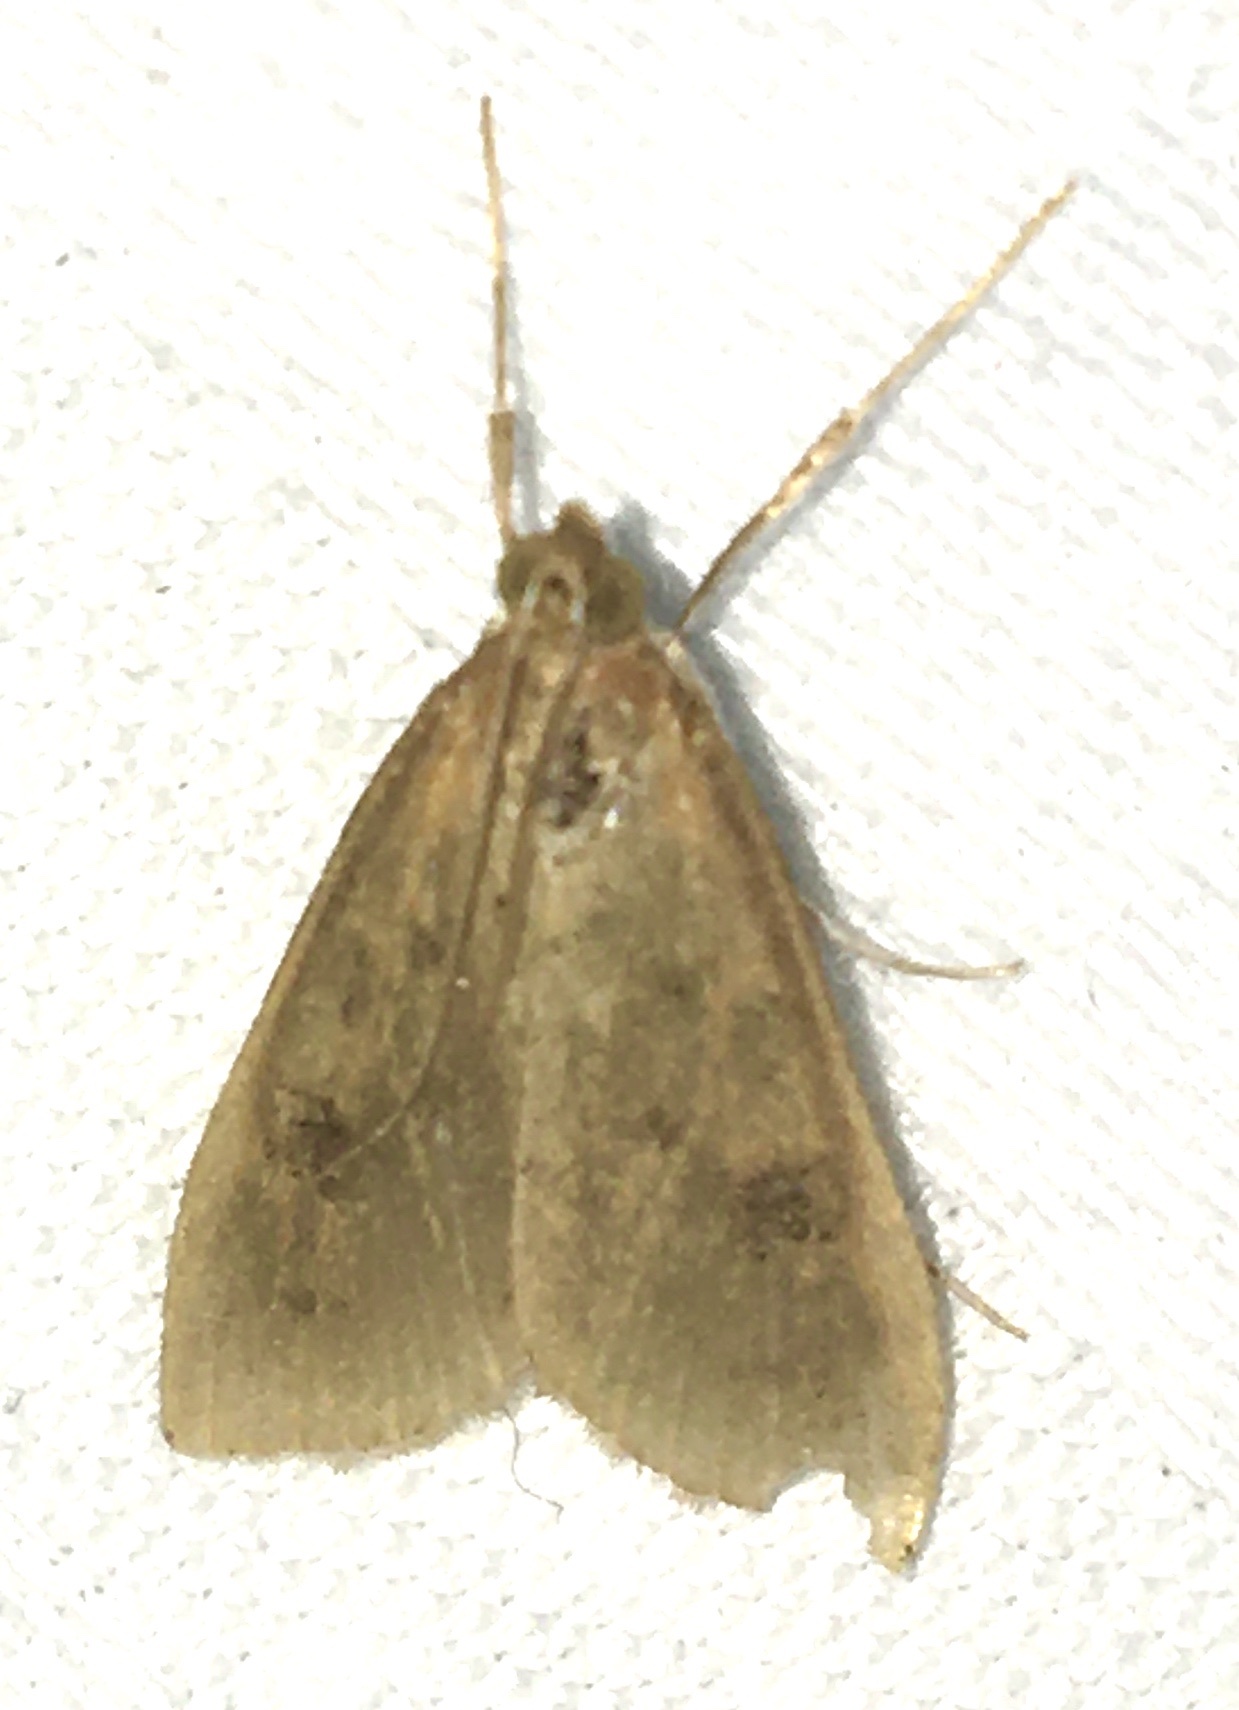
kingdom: Animalia
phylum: Arthropoda
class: Insecta
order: Lepidoptera
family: Crambidae
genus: Udea
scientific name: Udea ferrugalis
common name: Rusty dot
